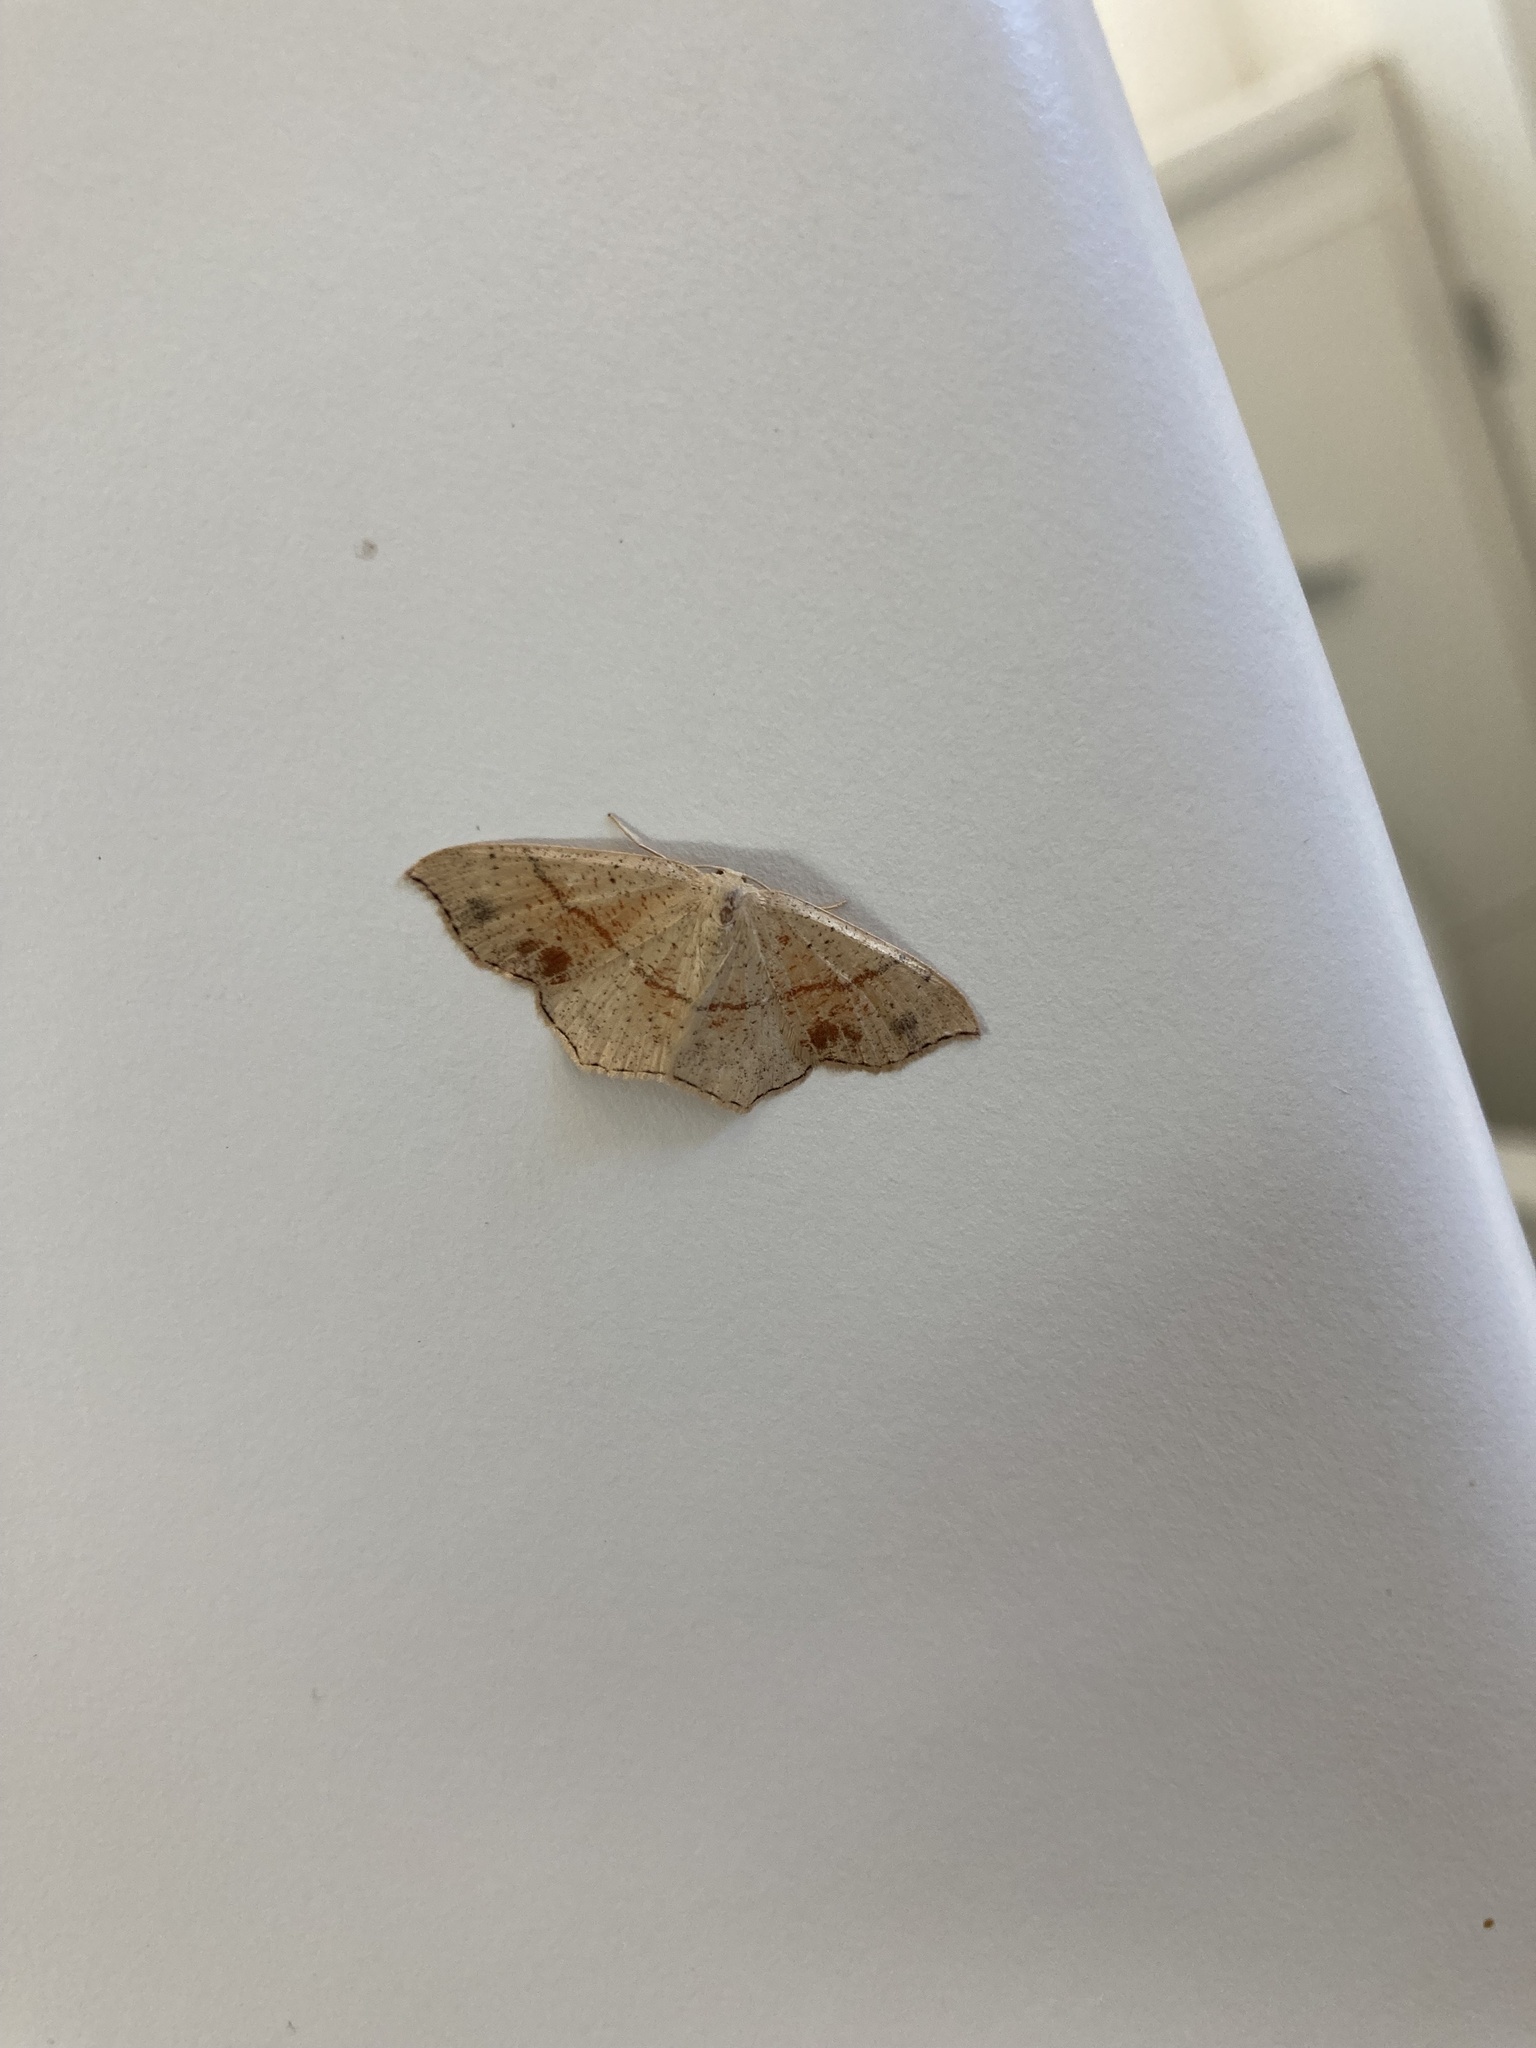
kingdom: Animalia
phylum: Arthropoda
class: Insecta
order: Lepidoptera
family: Geometridae
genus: Cyclophora
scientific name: Cyclophora punctaria
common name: Maiden's blush
